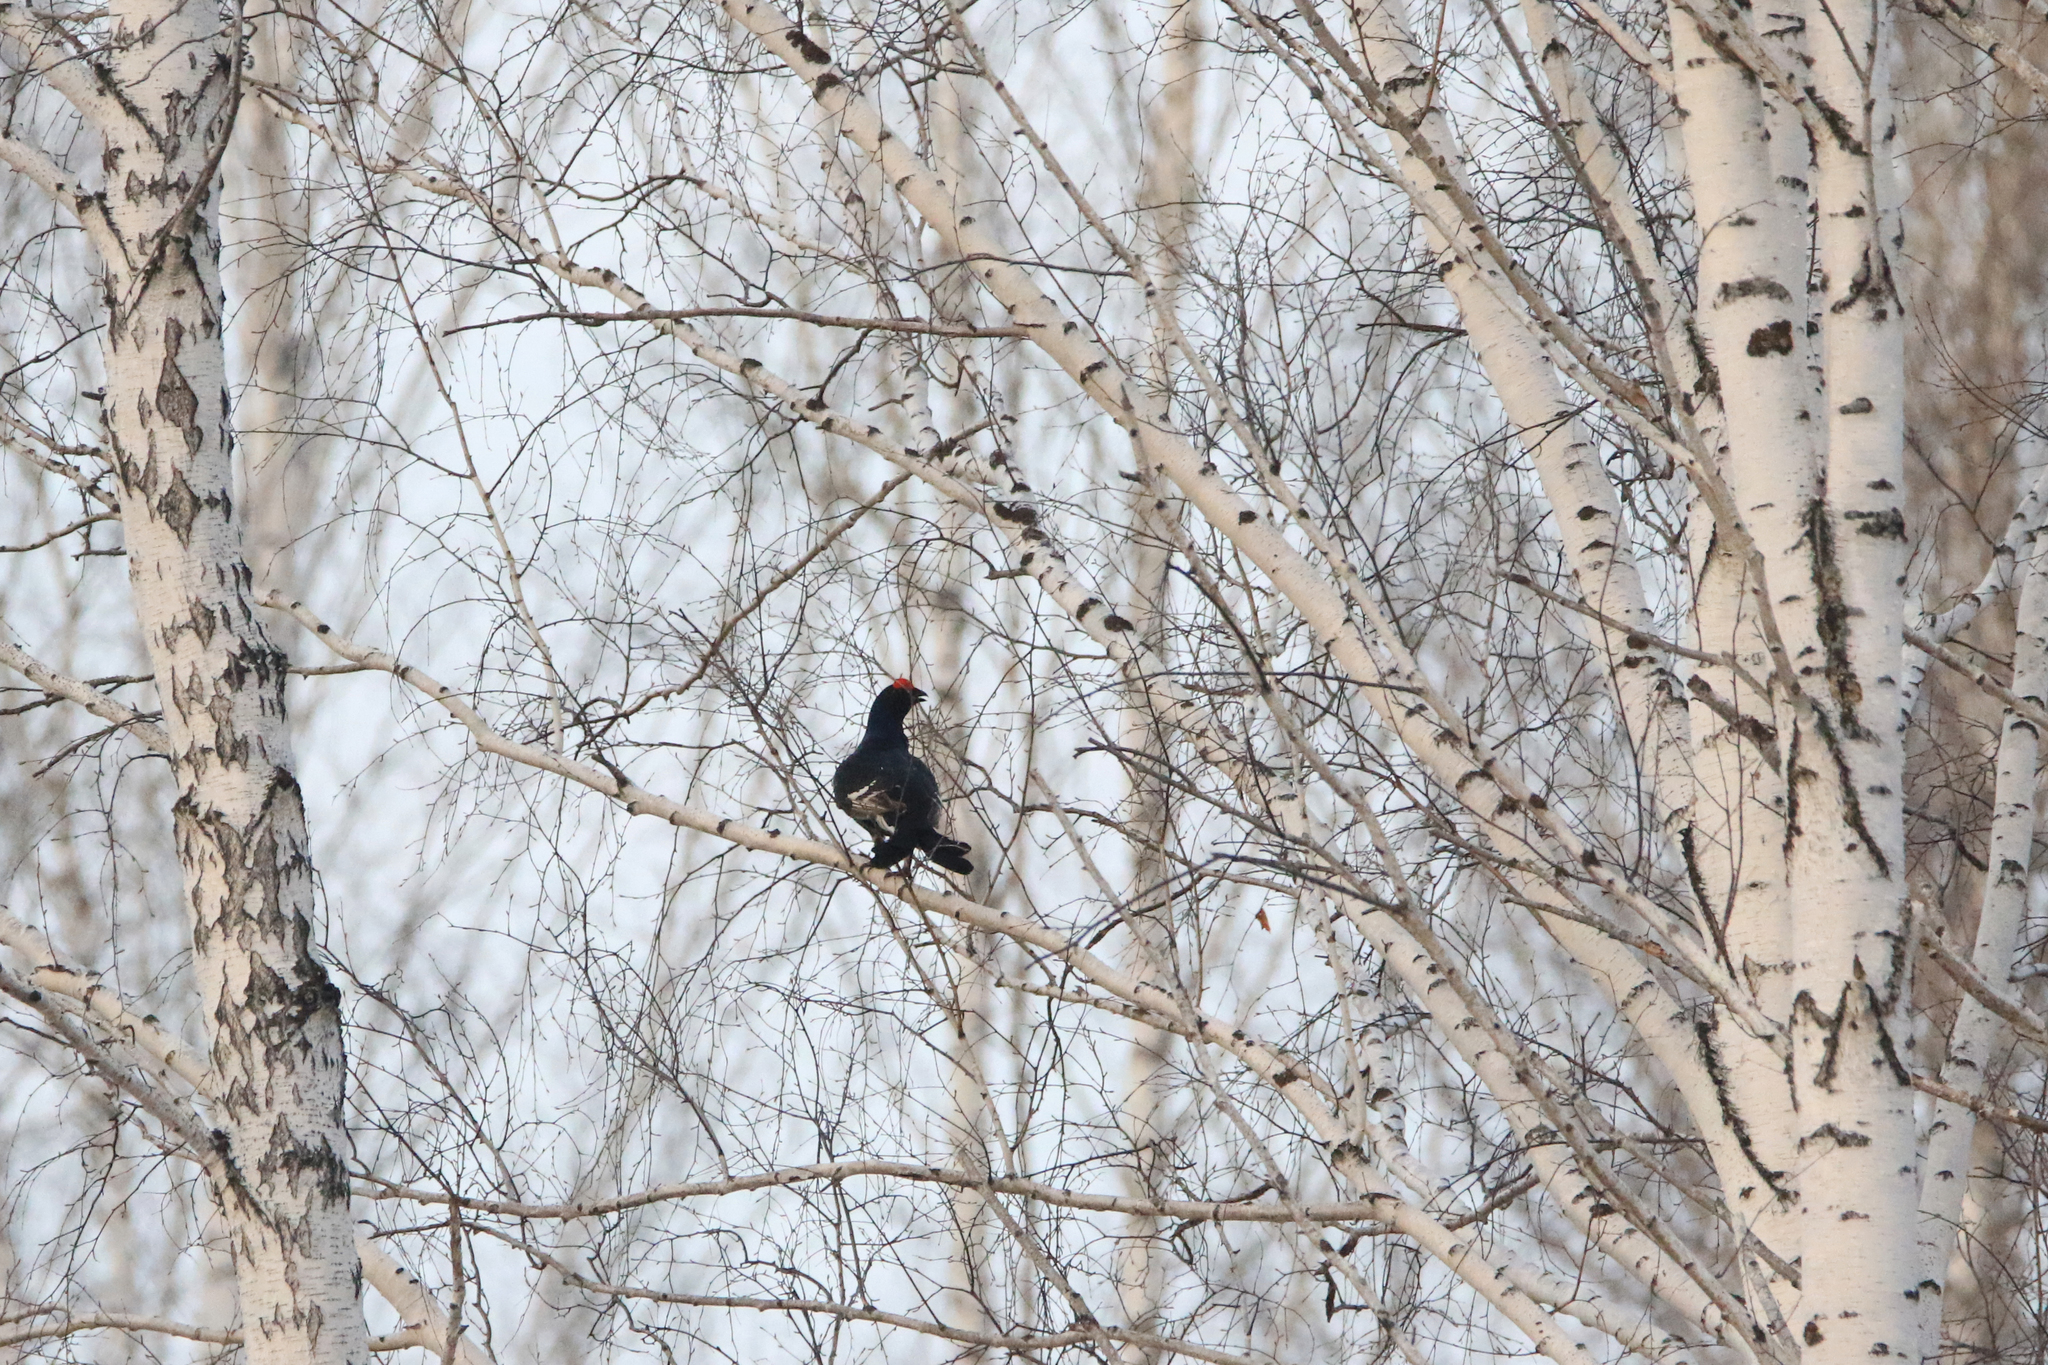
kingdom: Animalia
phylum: Chordata
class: Aves
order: Galliformes
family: Phasianidae
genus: Lyrurus
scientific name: Lyrurus tetrix
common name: Black grouse
